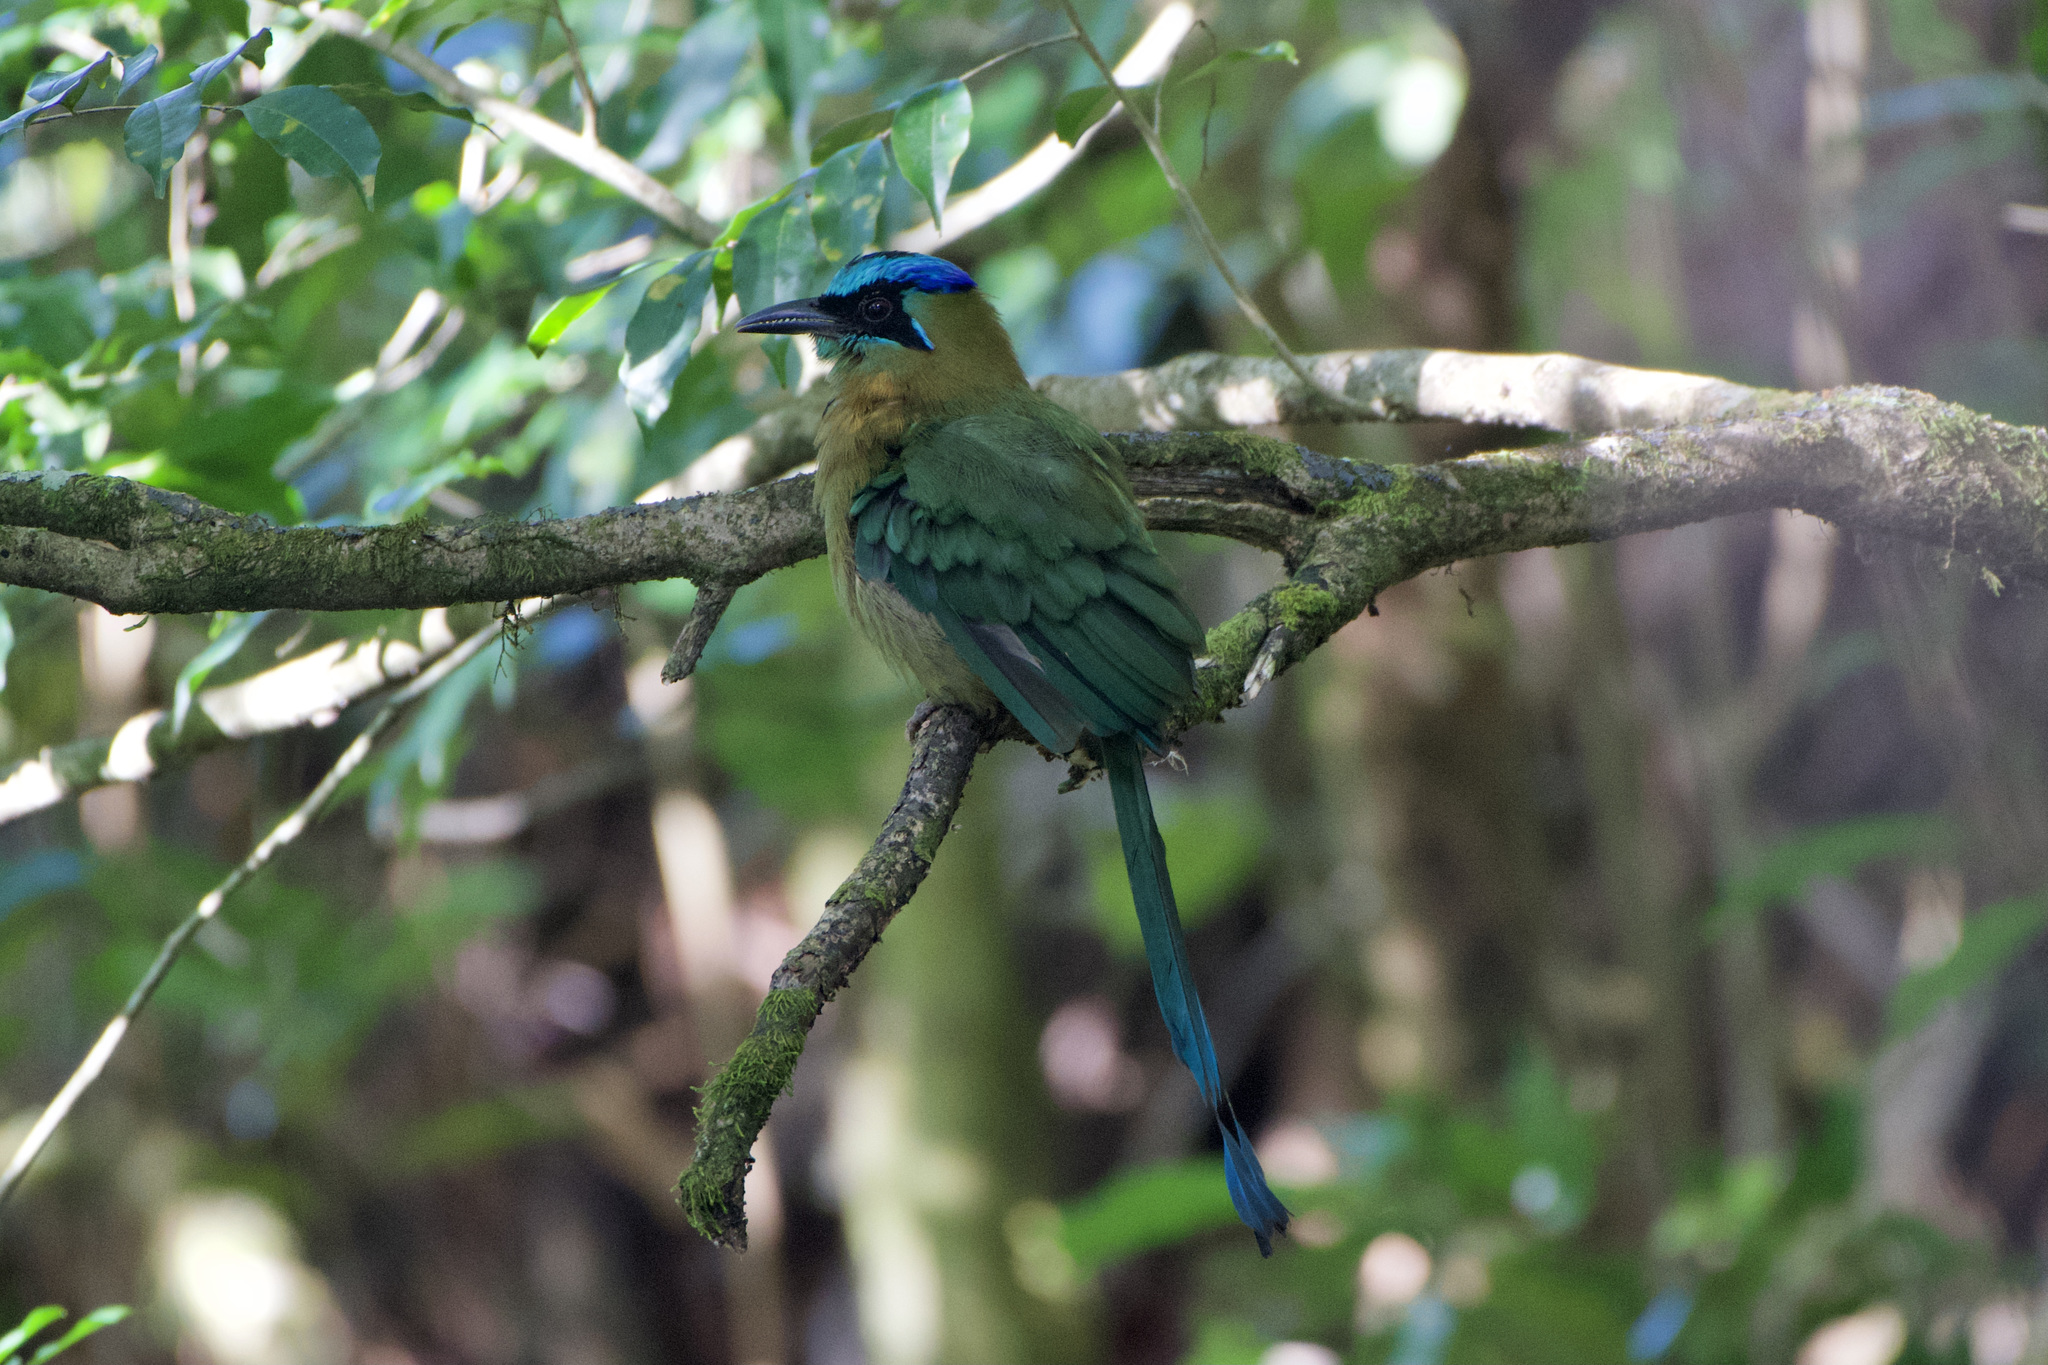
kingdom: Animalia
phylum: Chordata
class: Aves
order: Coraciiformes
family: Momotidae
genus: Momotus
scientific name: Momotus lessonii
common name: Lesson's motmot
